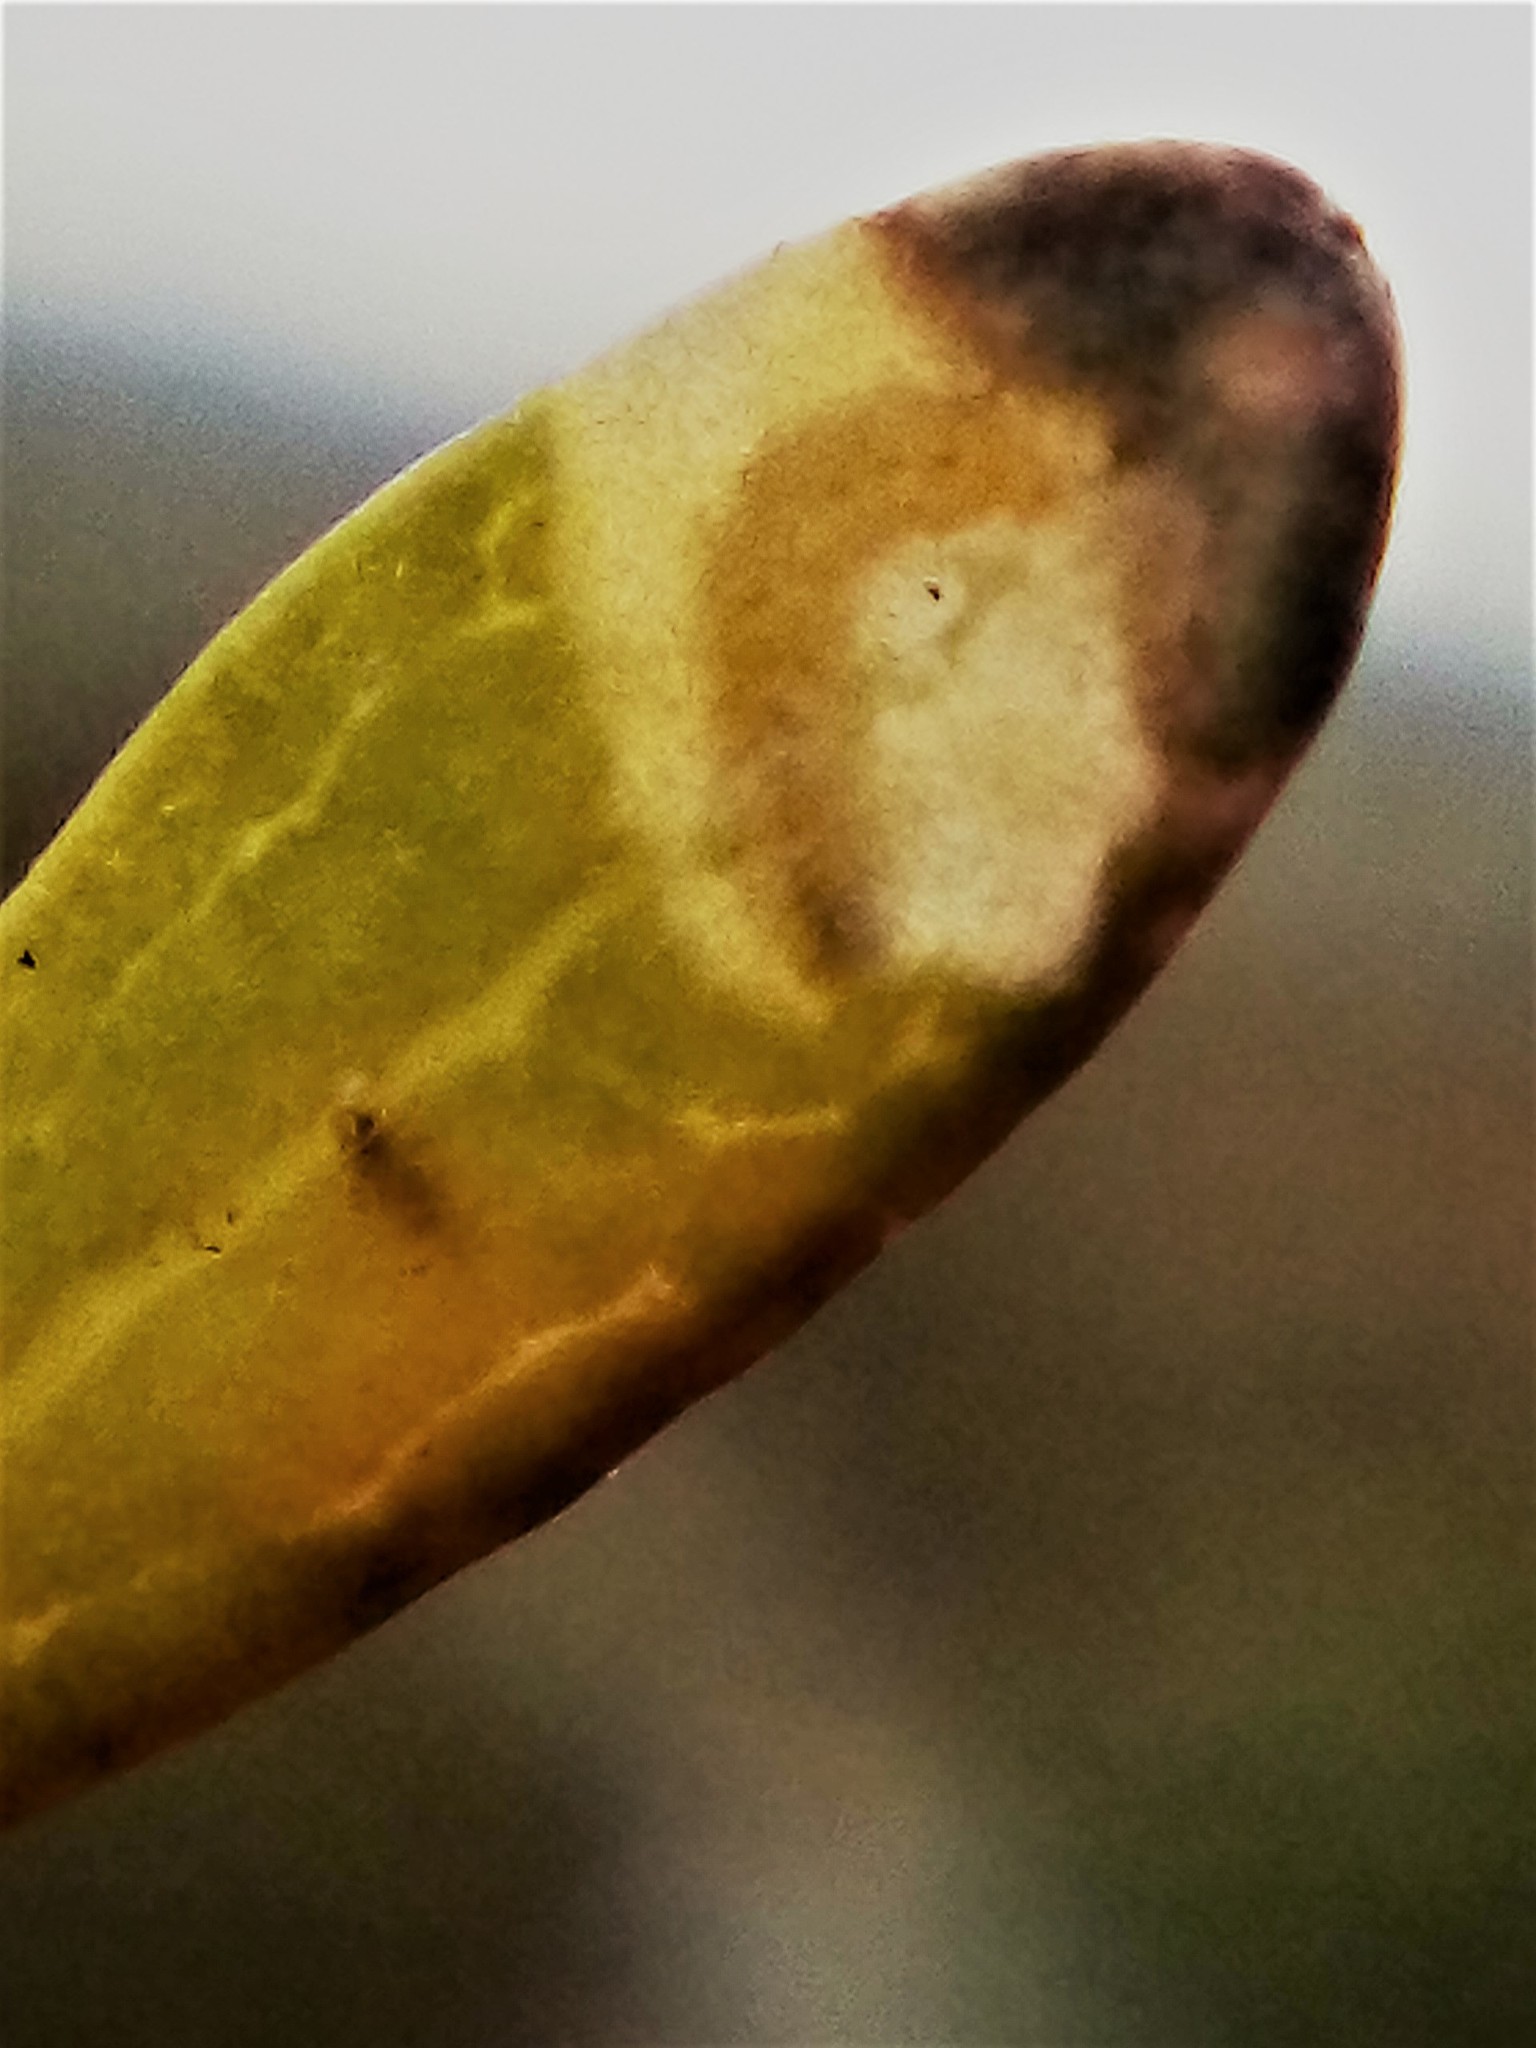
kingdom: Animalia
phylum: Arthropoda
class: Insecta
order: Lepidoptera
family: Nepticulidae
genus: Stigmella
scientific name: Stigmella aigialeia
